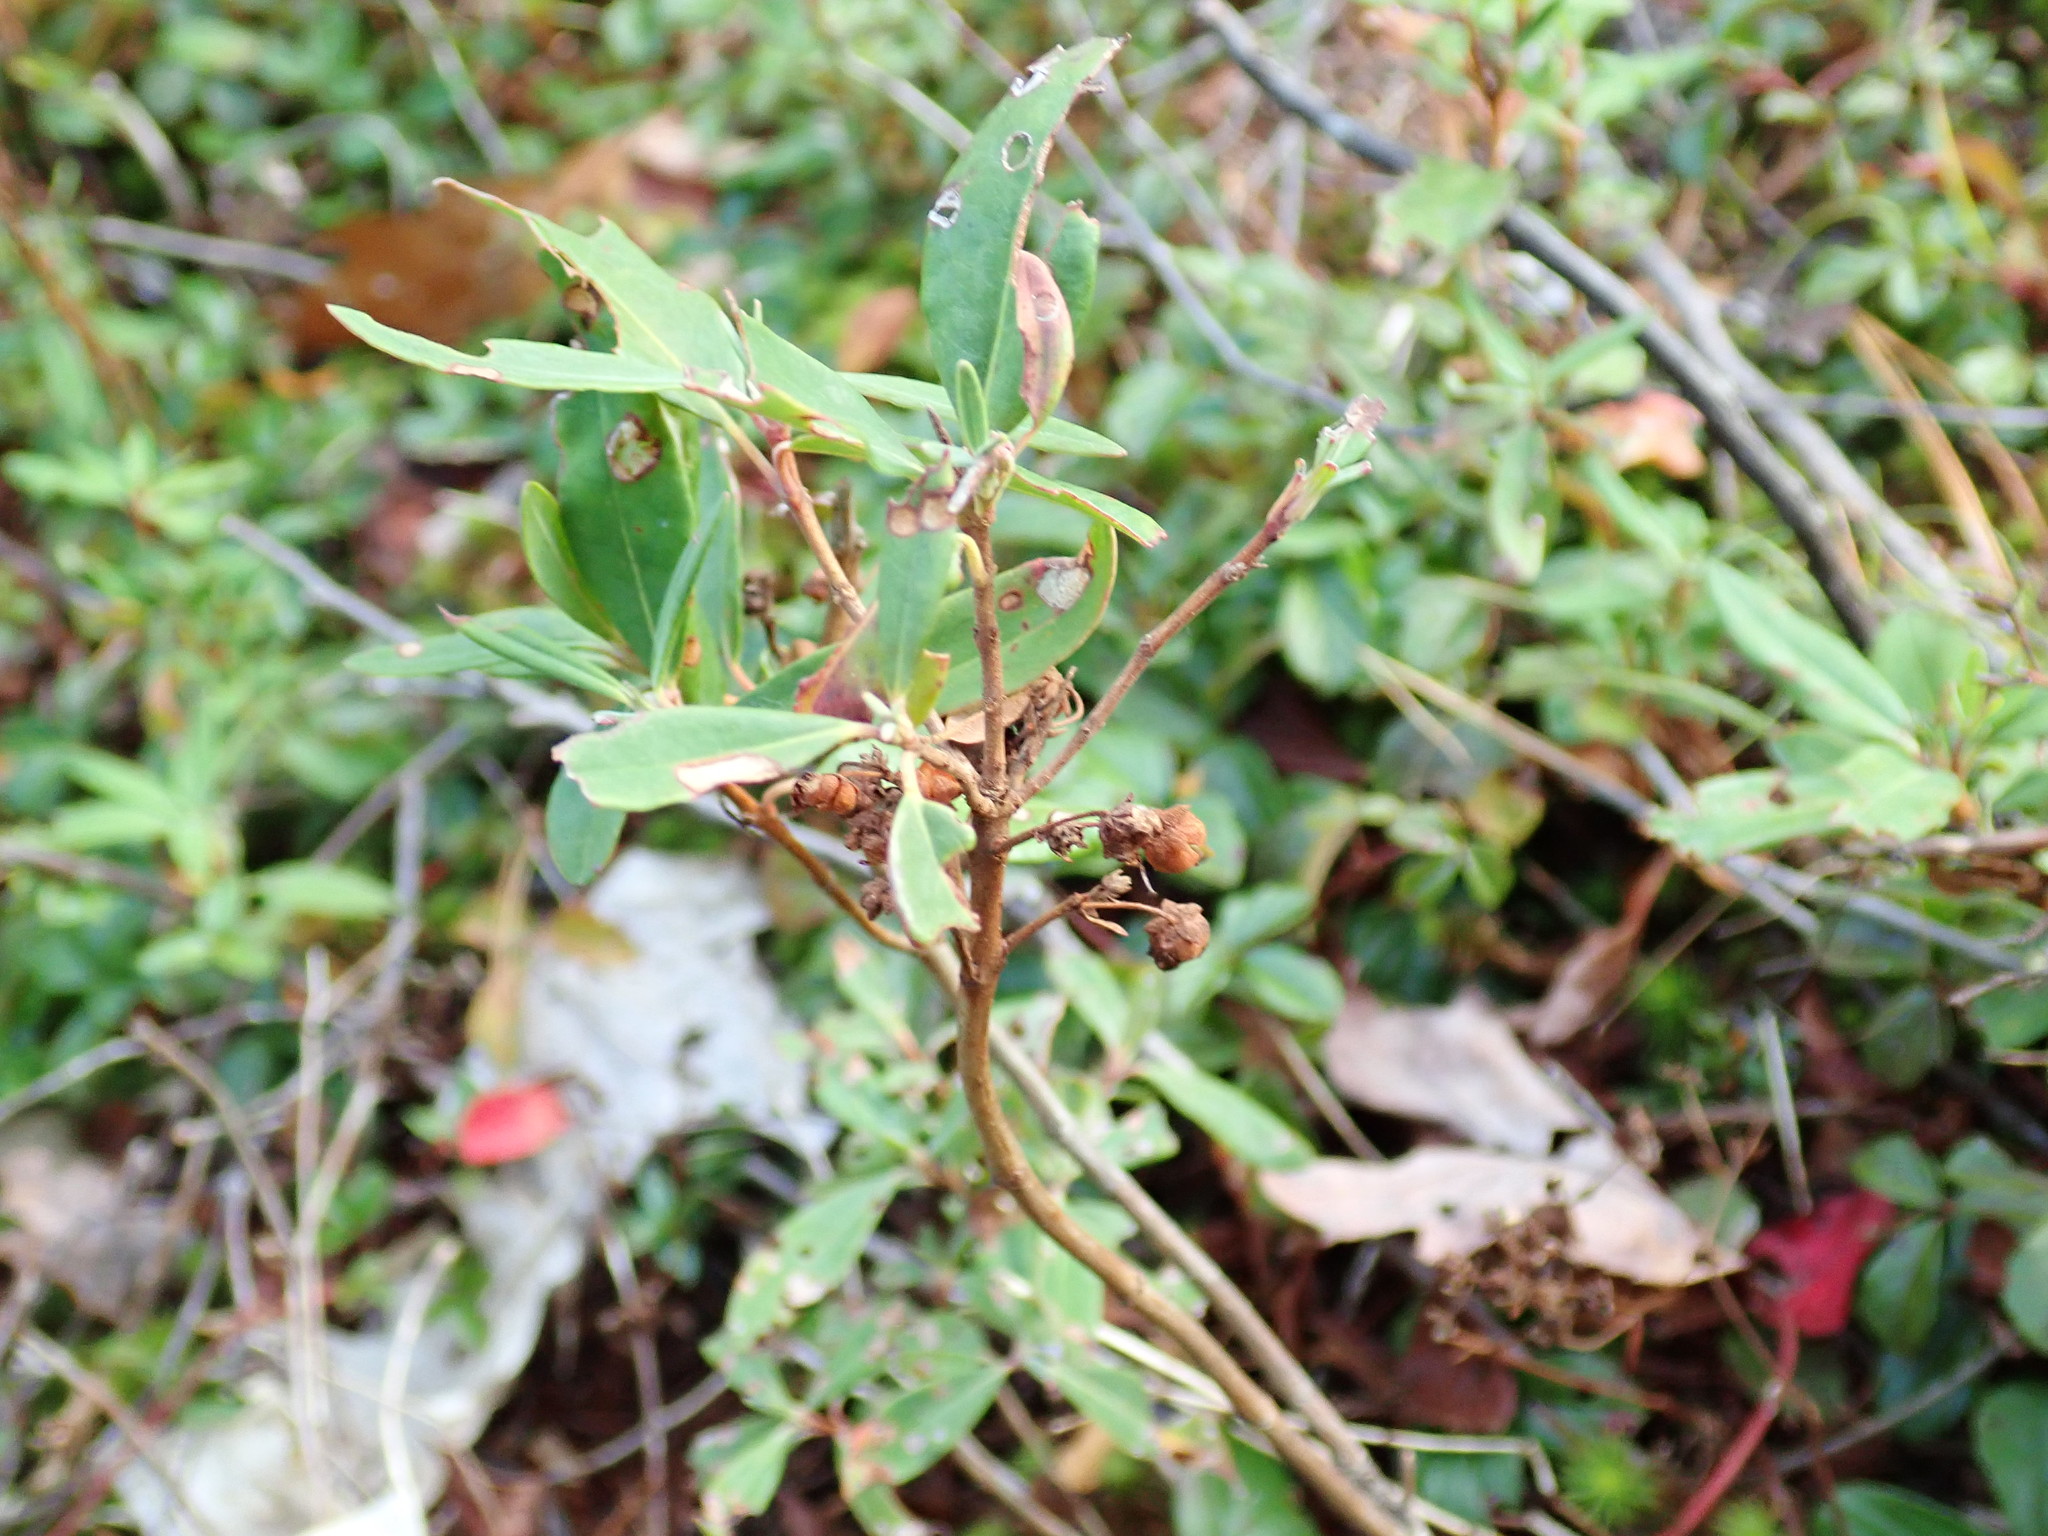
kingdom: Plantae
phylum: Tracheophyta
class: Magnoliopsida
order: Ericales
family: Ericaceae
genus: Kalmia
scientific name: Kalmia angustifolia
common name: Sheep-laurel
